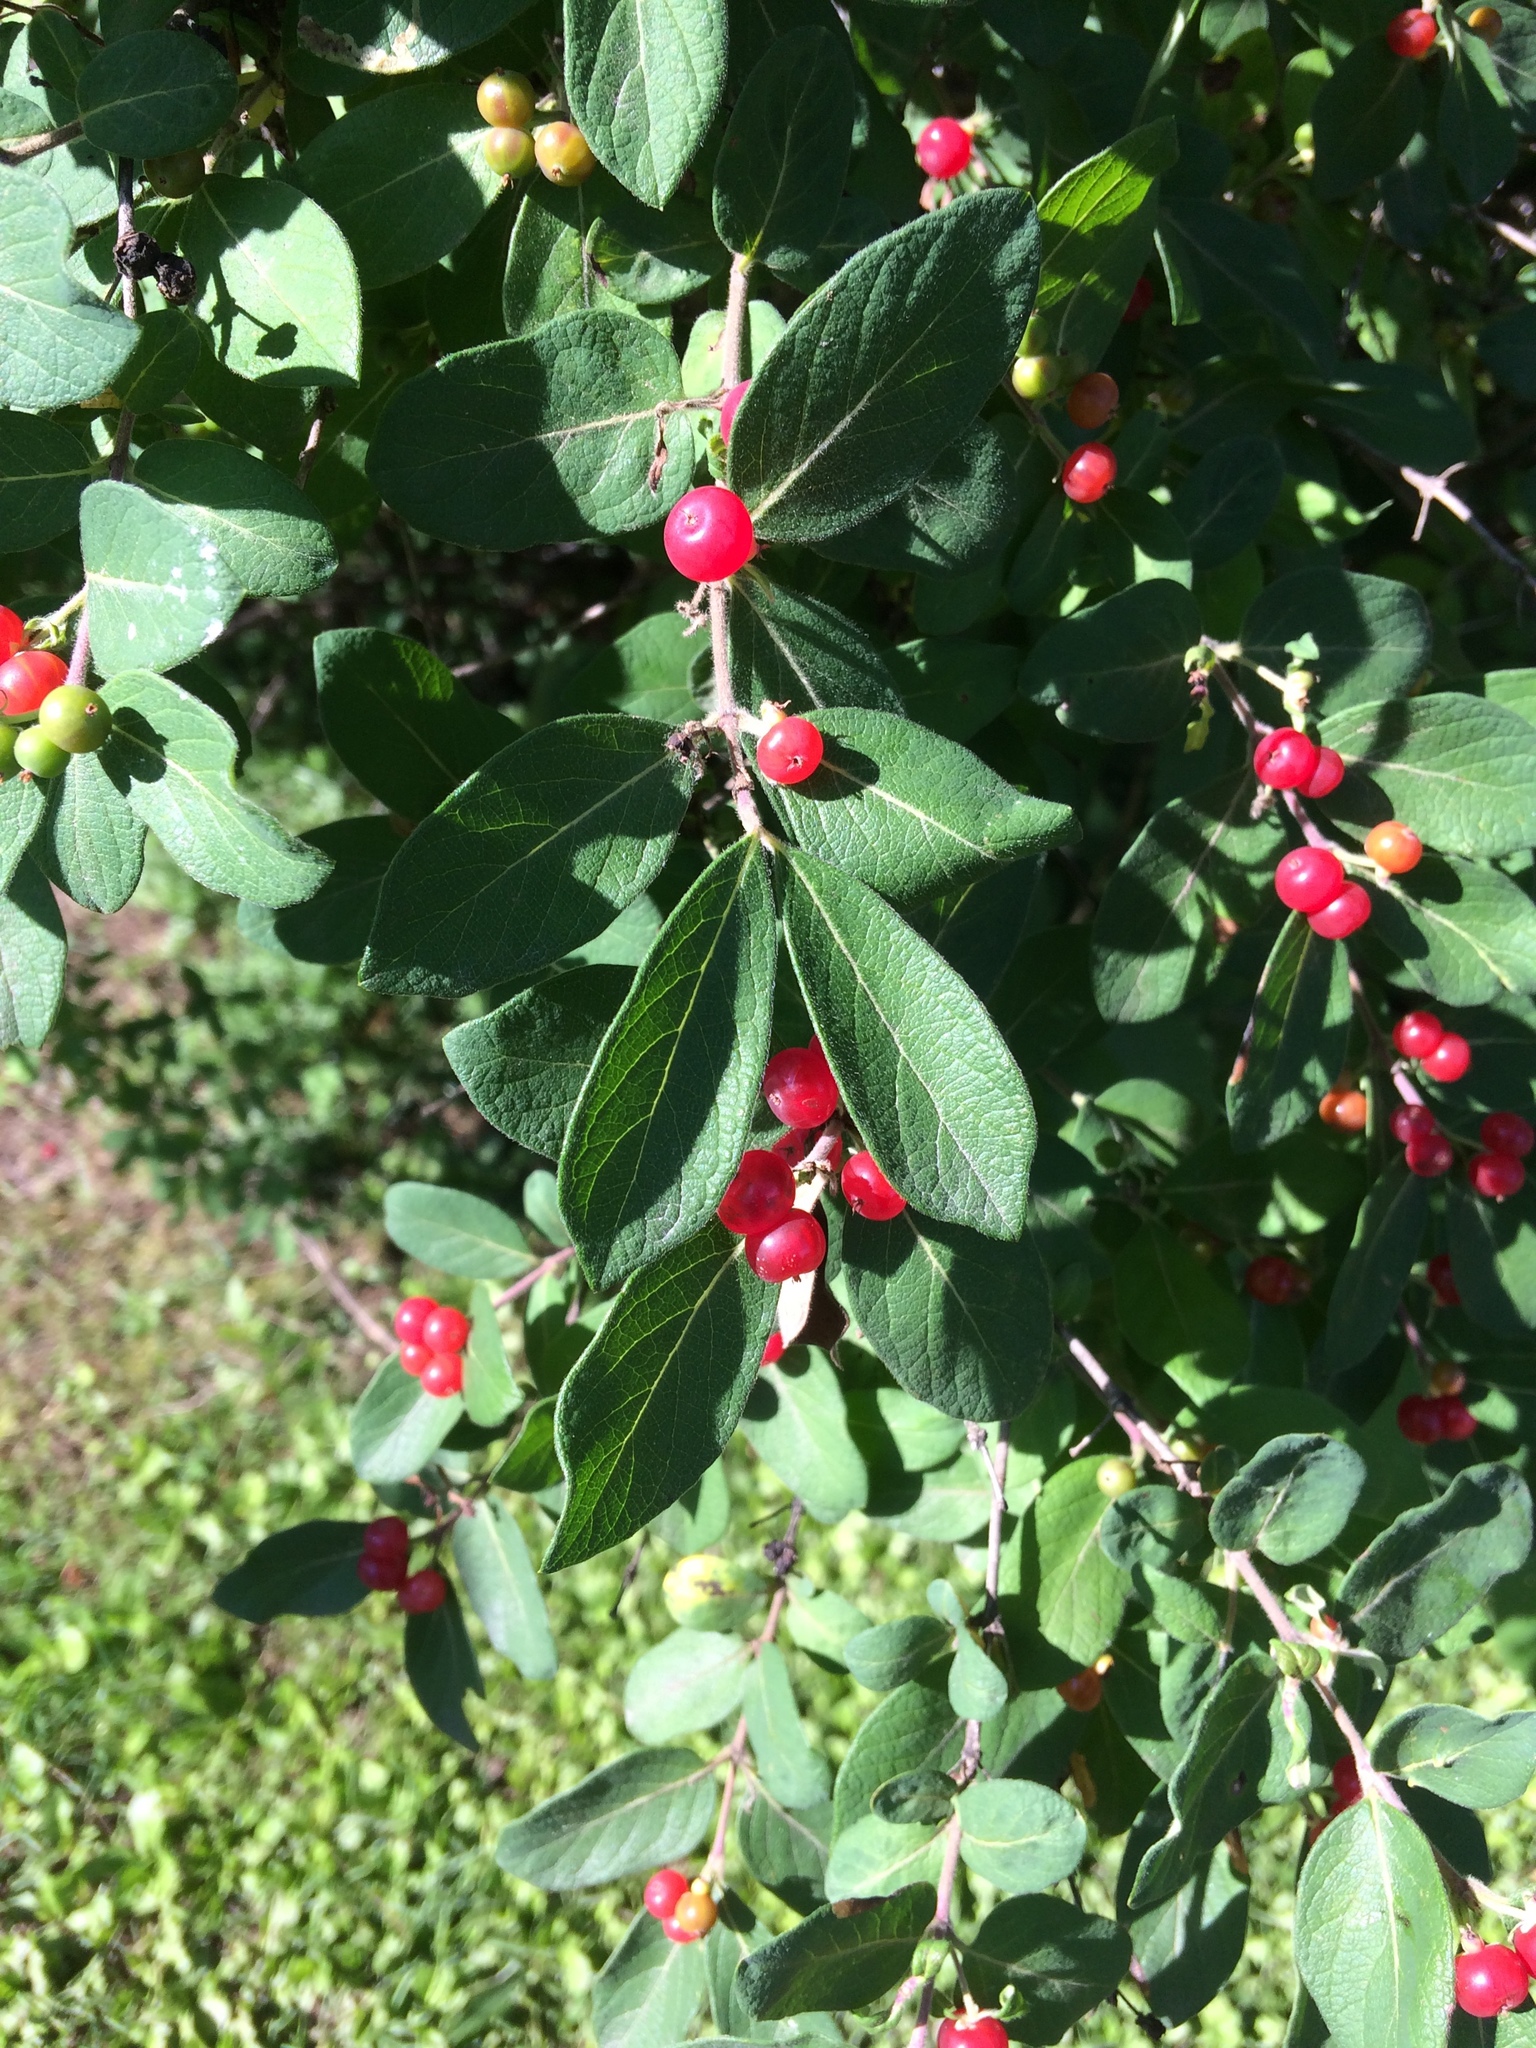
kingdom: Plantae
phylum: Tracheophyta
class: Magnoliopsida
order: Dipsacales
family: Caprifoliaceae
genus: Lonicera
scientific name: Lonicera morrowii
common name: Morrow's honeysuckle
